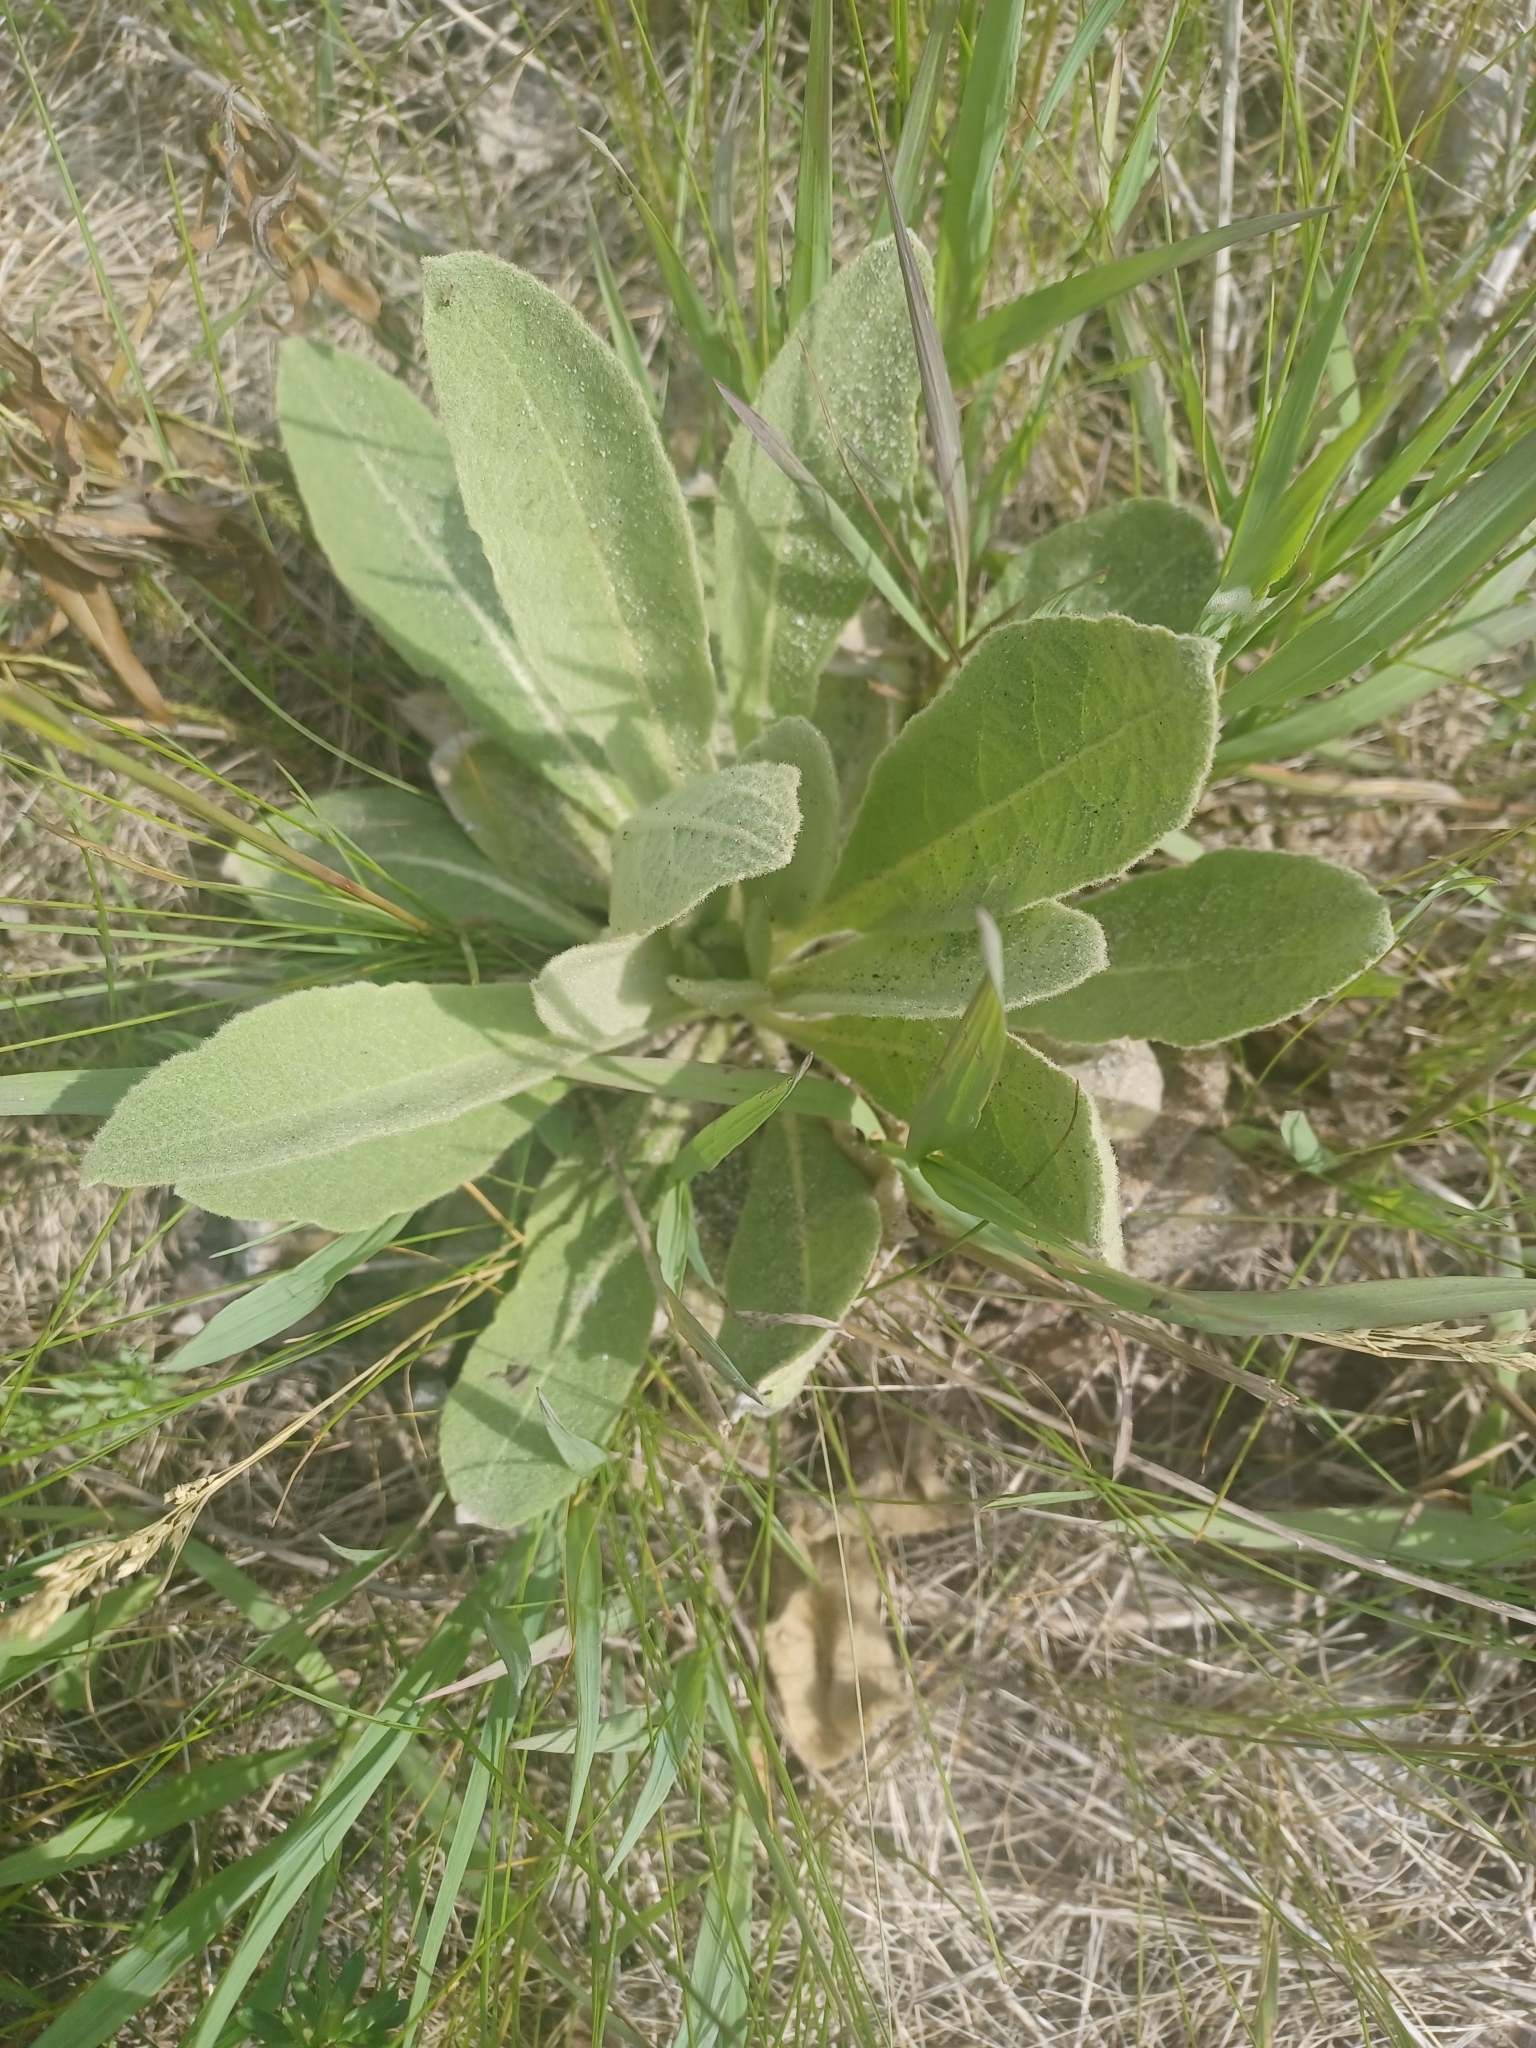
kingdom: Plantae
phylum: Tracheophyta
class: Magnoliopsida
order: Lamiales
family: Scrophulariaceae
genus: Verbascum
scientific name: Verbascum thapsus
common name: Common mullein
